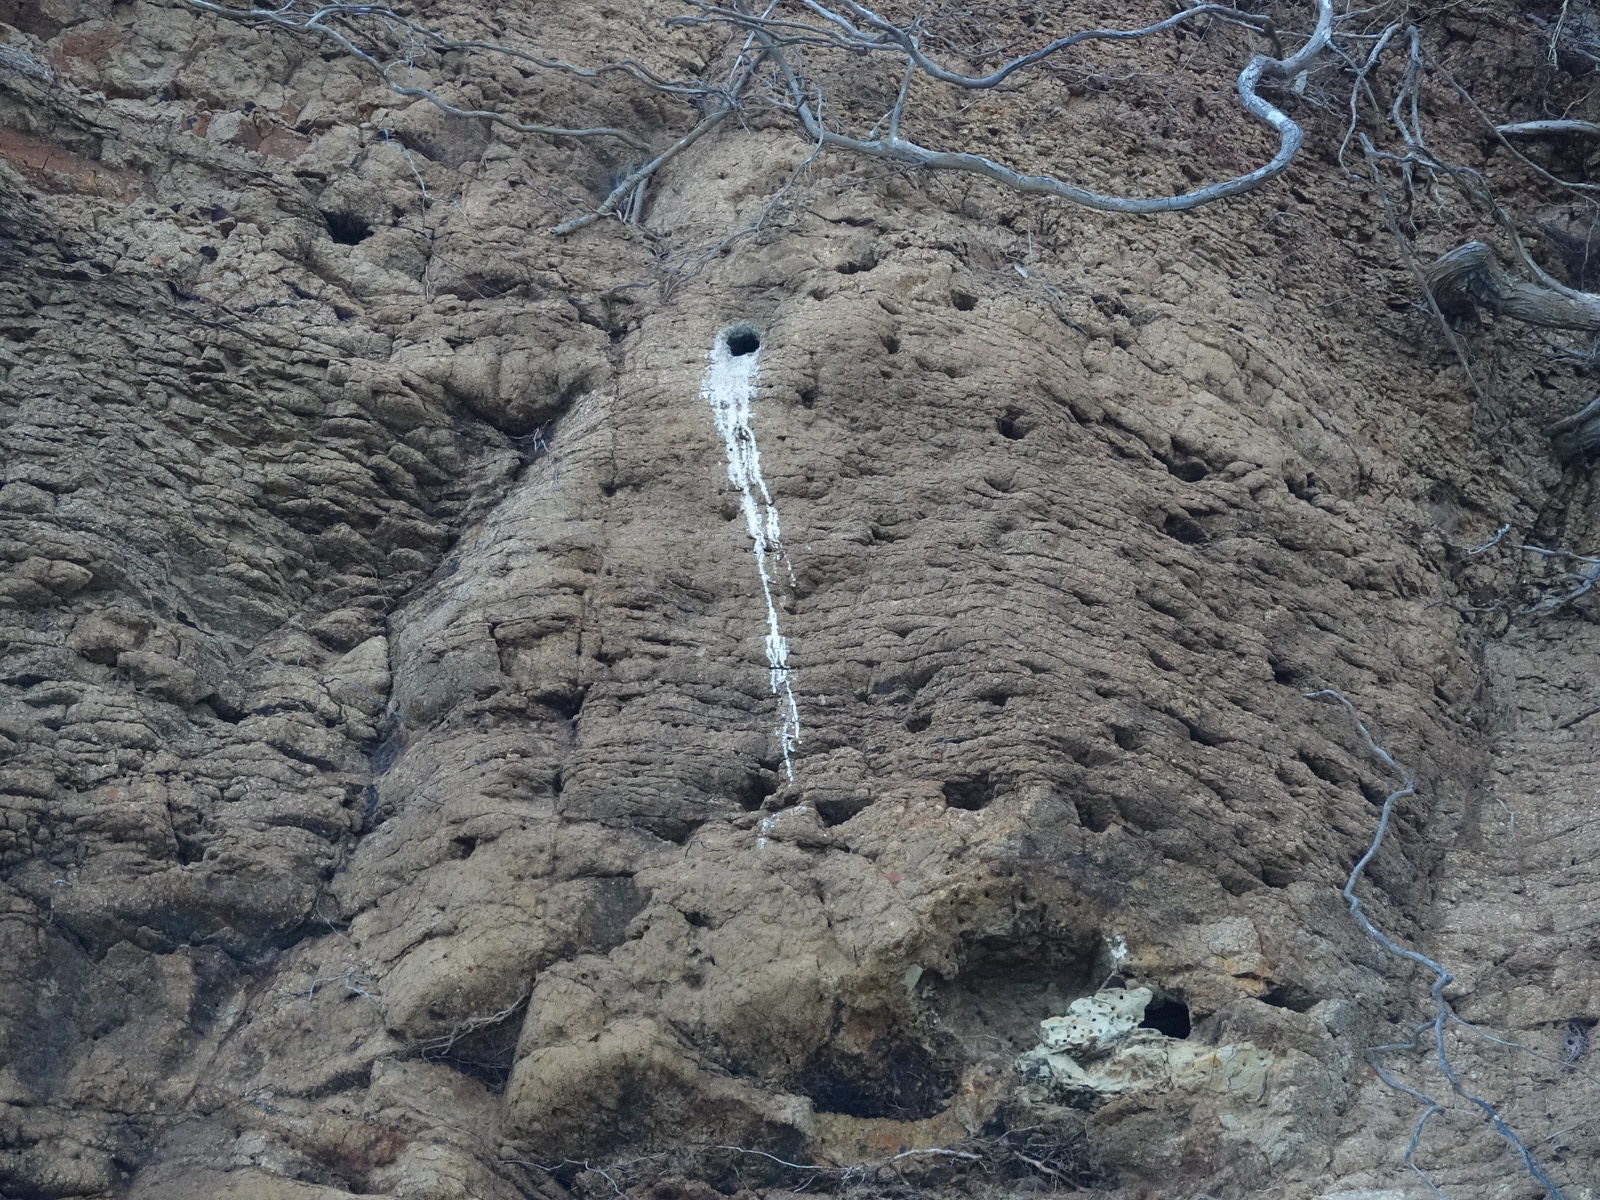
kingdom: Animalia
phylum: Chordata
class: Aves
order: Coraciiformes
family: Alcedinidae
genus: Todiramphus
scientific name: Todiramphus sanctus
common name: Sacred kingfisher
